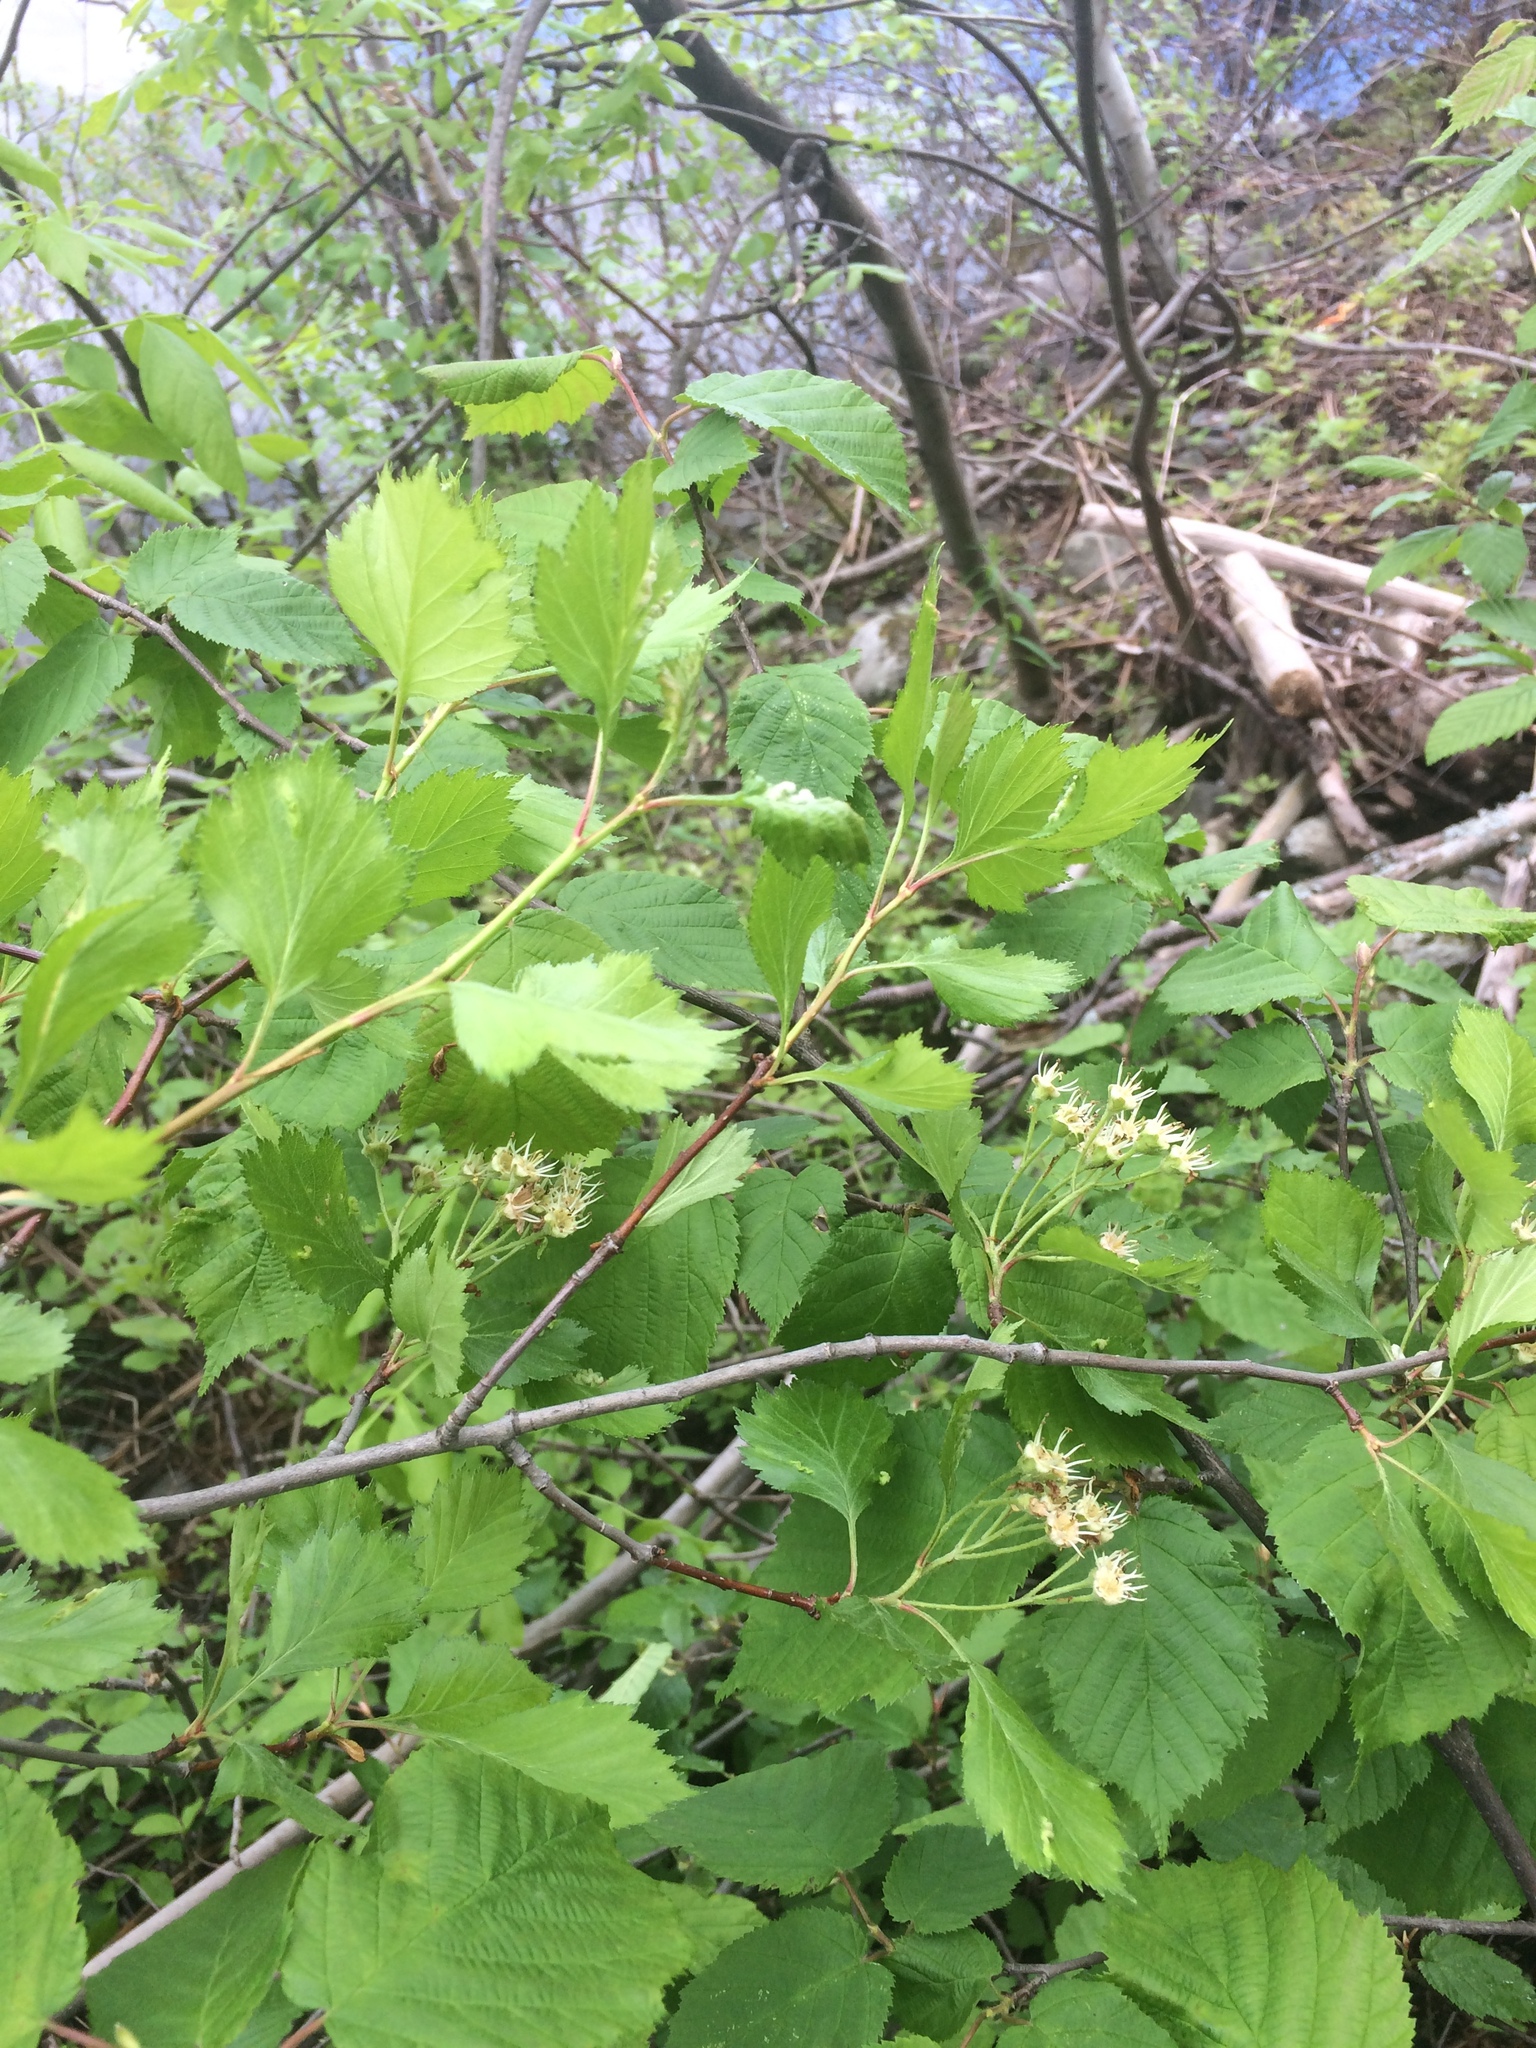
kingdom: Plantae
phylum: Tracheophyta
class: Magnoliopsida
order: Rosales
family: Rosaceae
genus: Crataegus
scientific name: Crataegus chrysocarpa
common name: Fire-berry hawthorn
